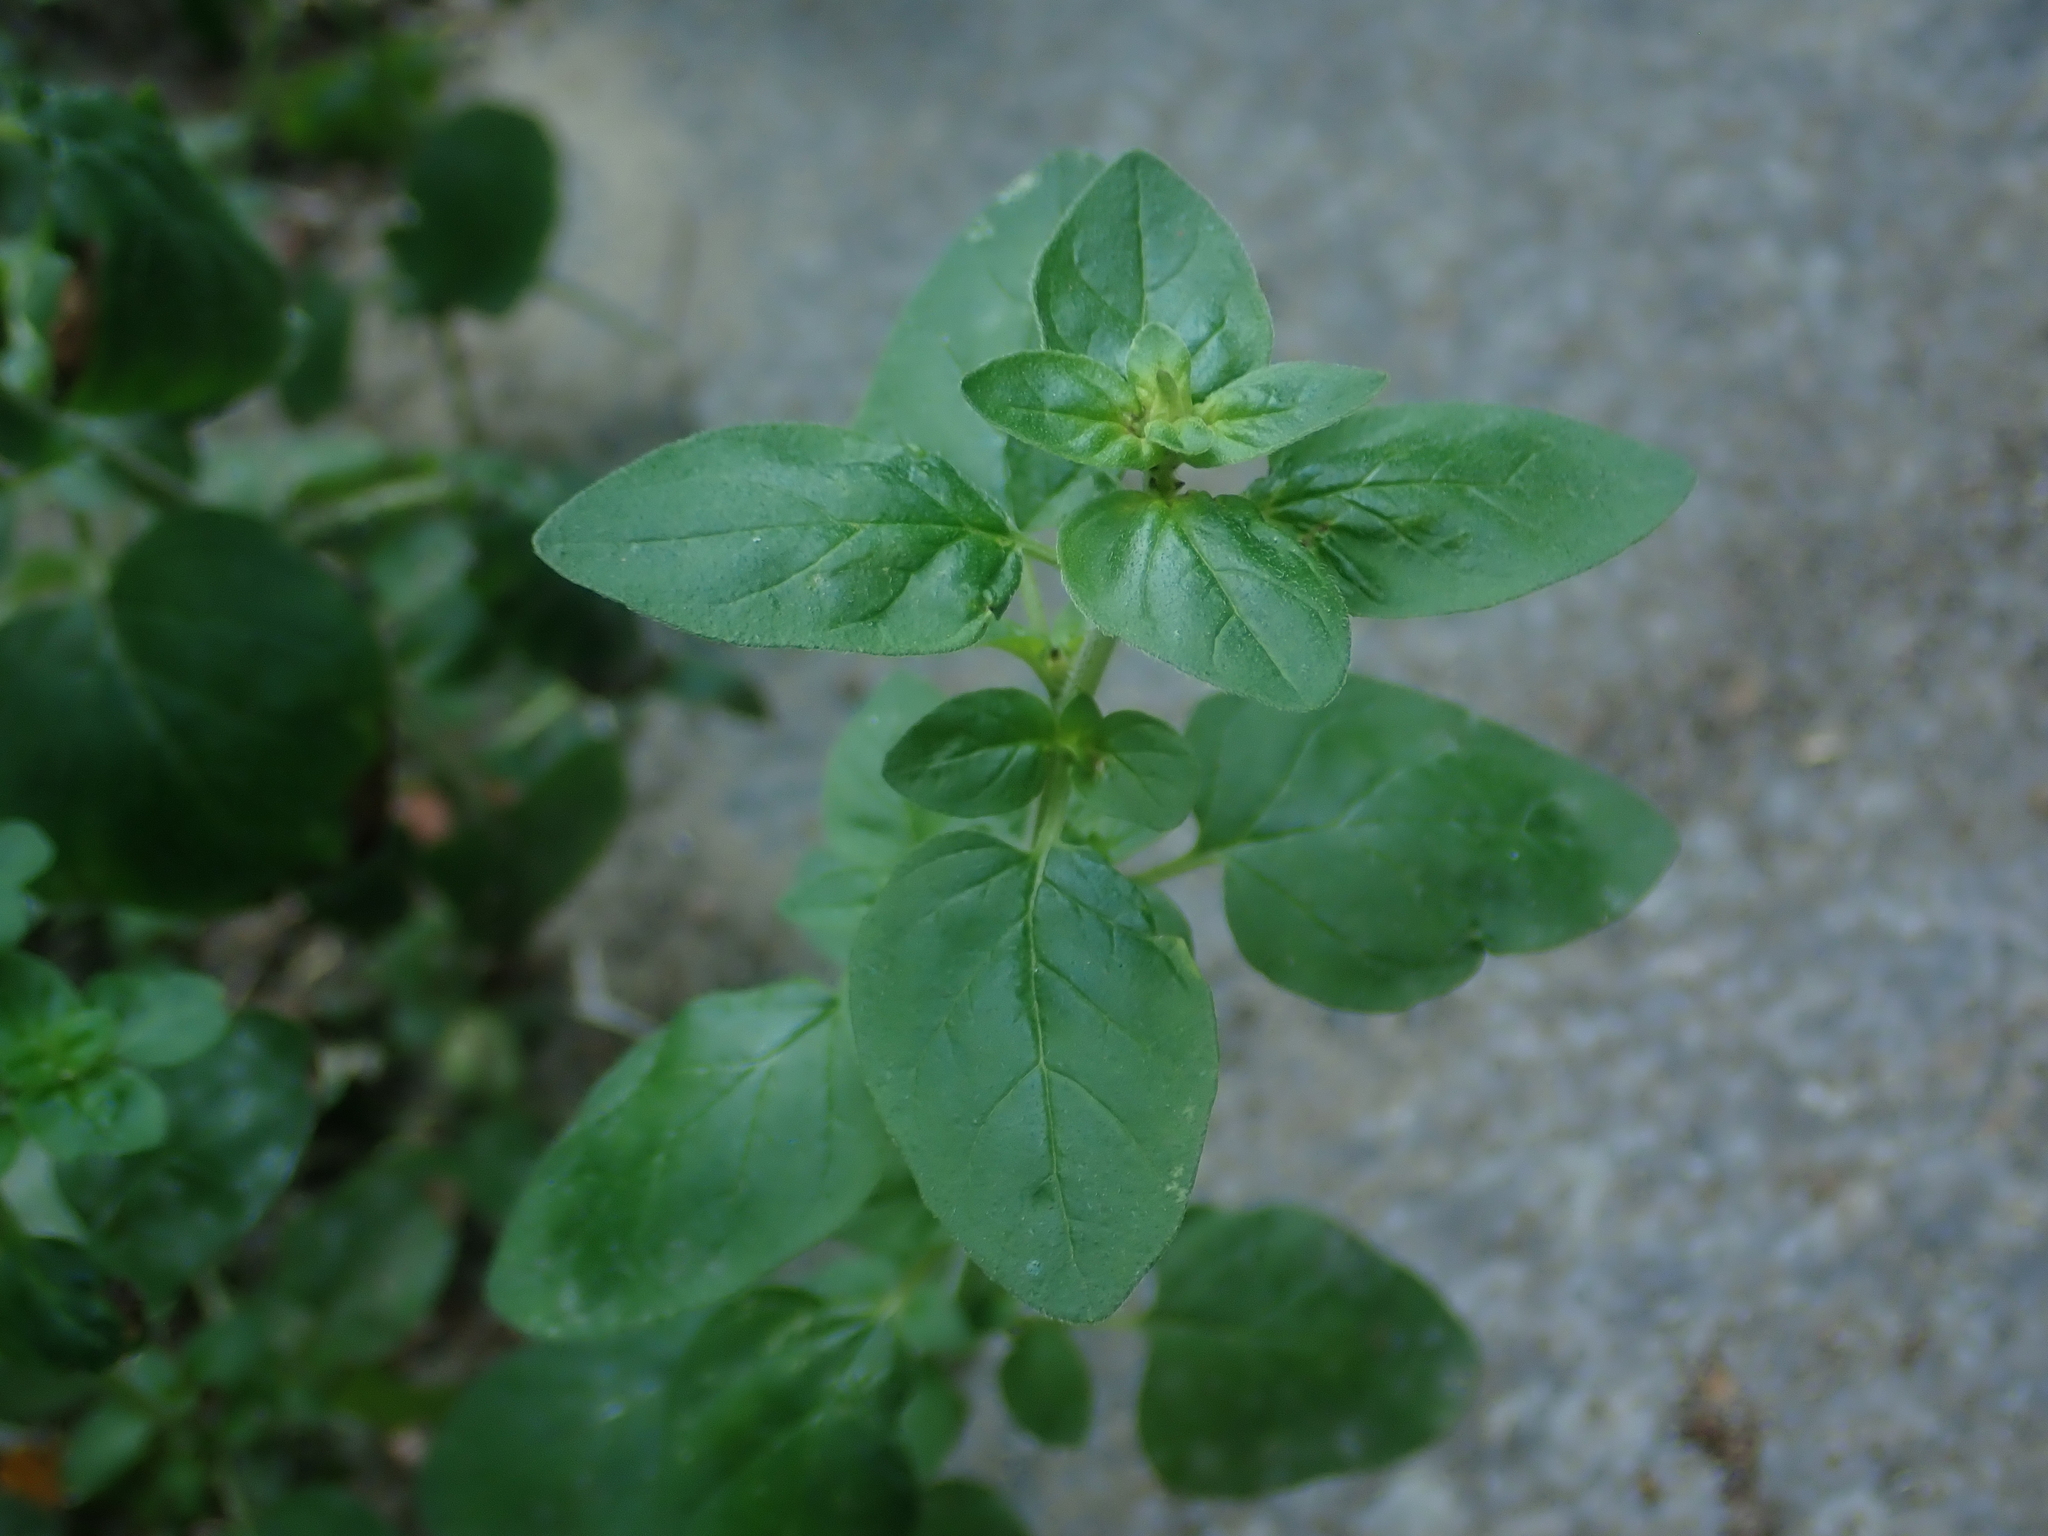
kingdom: Plantae
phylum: Tracheophyta
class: Magnoliopsida
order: Lamiales
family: Lamiaceae
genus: Origanum
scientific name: Origanum vulgare
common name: Wild marjoram
